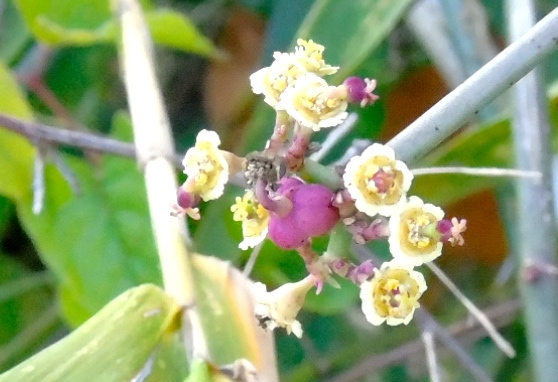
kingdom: Plantae
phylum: Tracheophyta
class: Magnoliopsida
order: Malpighiales
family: Euphorbiaceae
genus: Euphorbia
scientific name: Euphorbia
